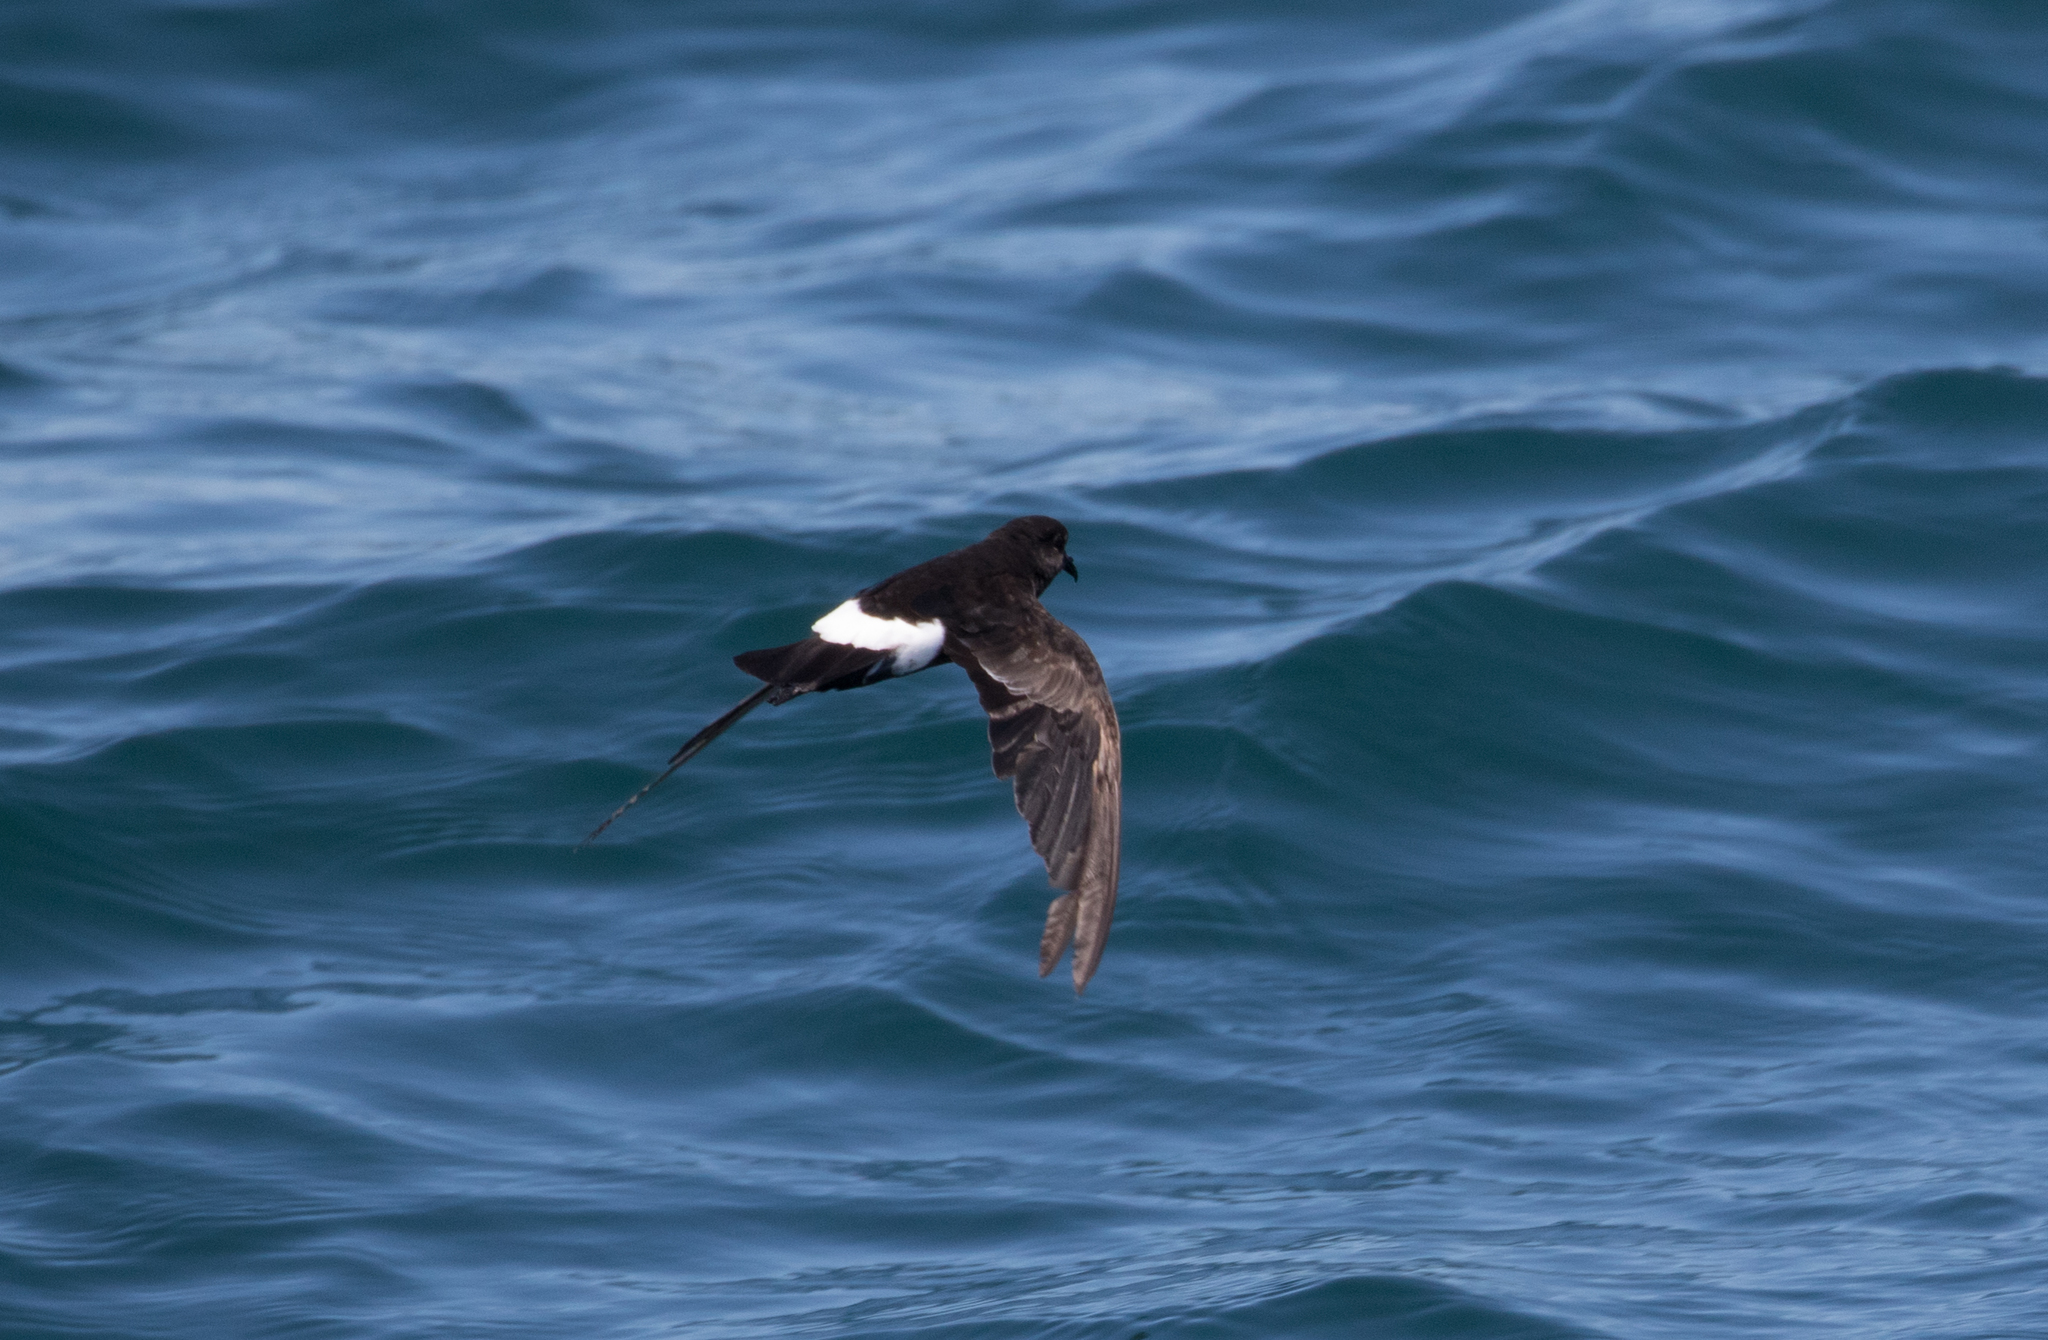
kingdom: Animalia
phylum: Chordata
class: Aves
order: Procellariiformes
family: Hydrobatidae
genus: Oceanites
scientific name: Oceanites oceanicus
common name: Wilson's storm petrel
